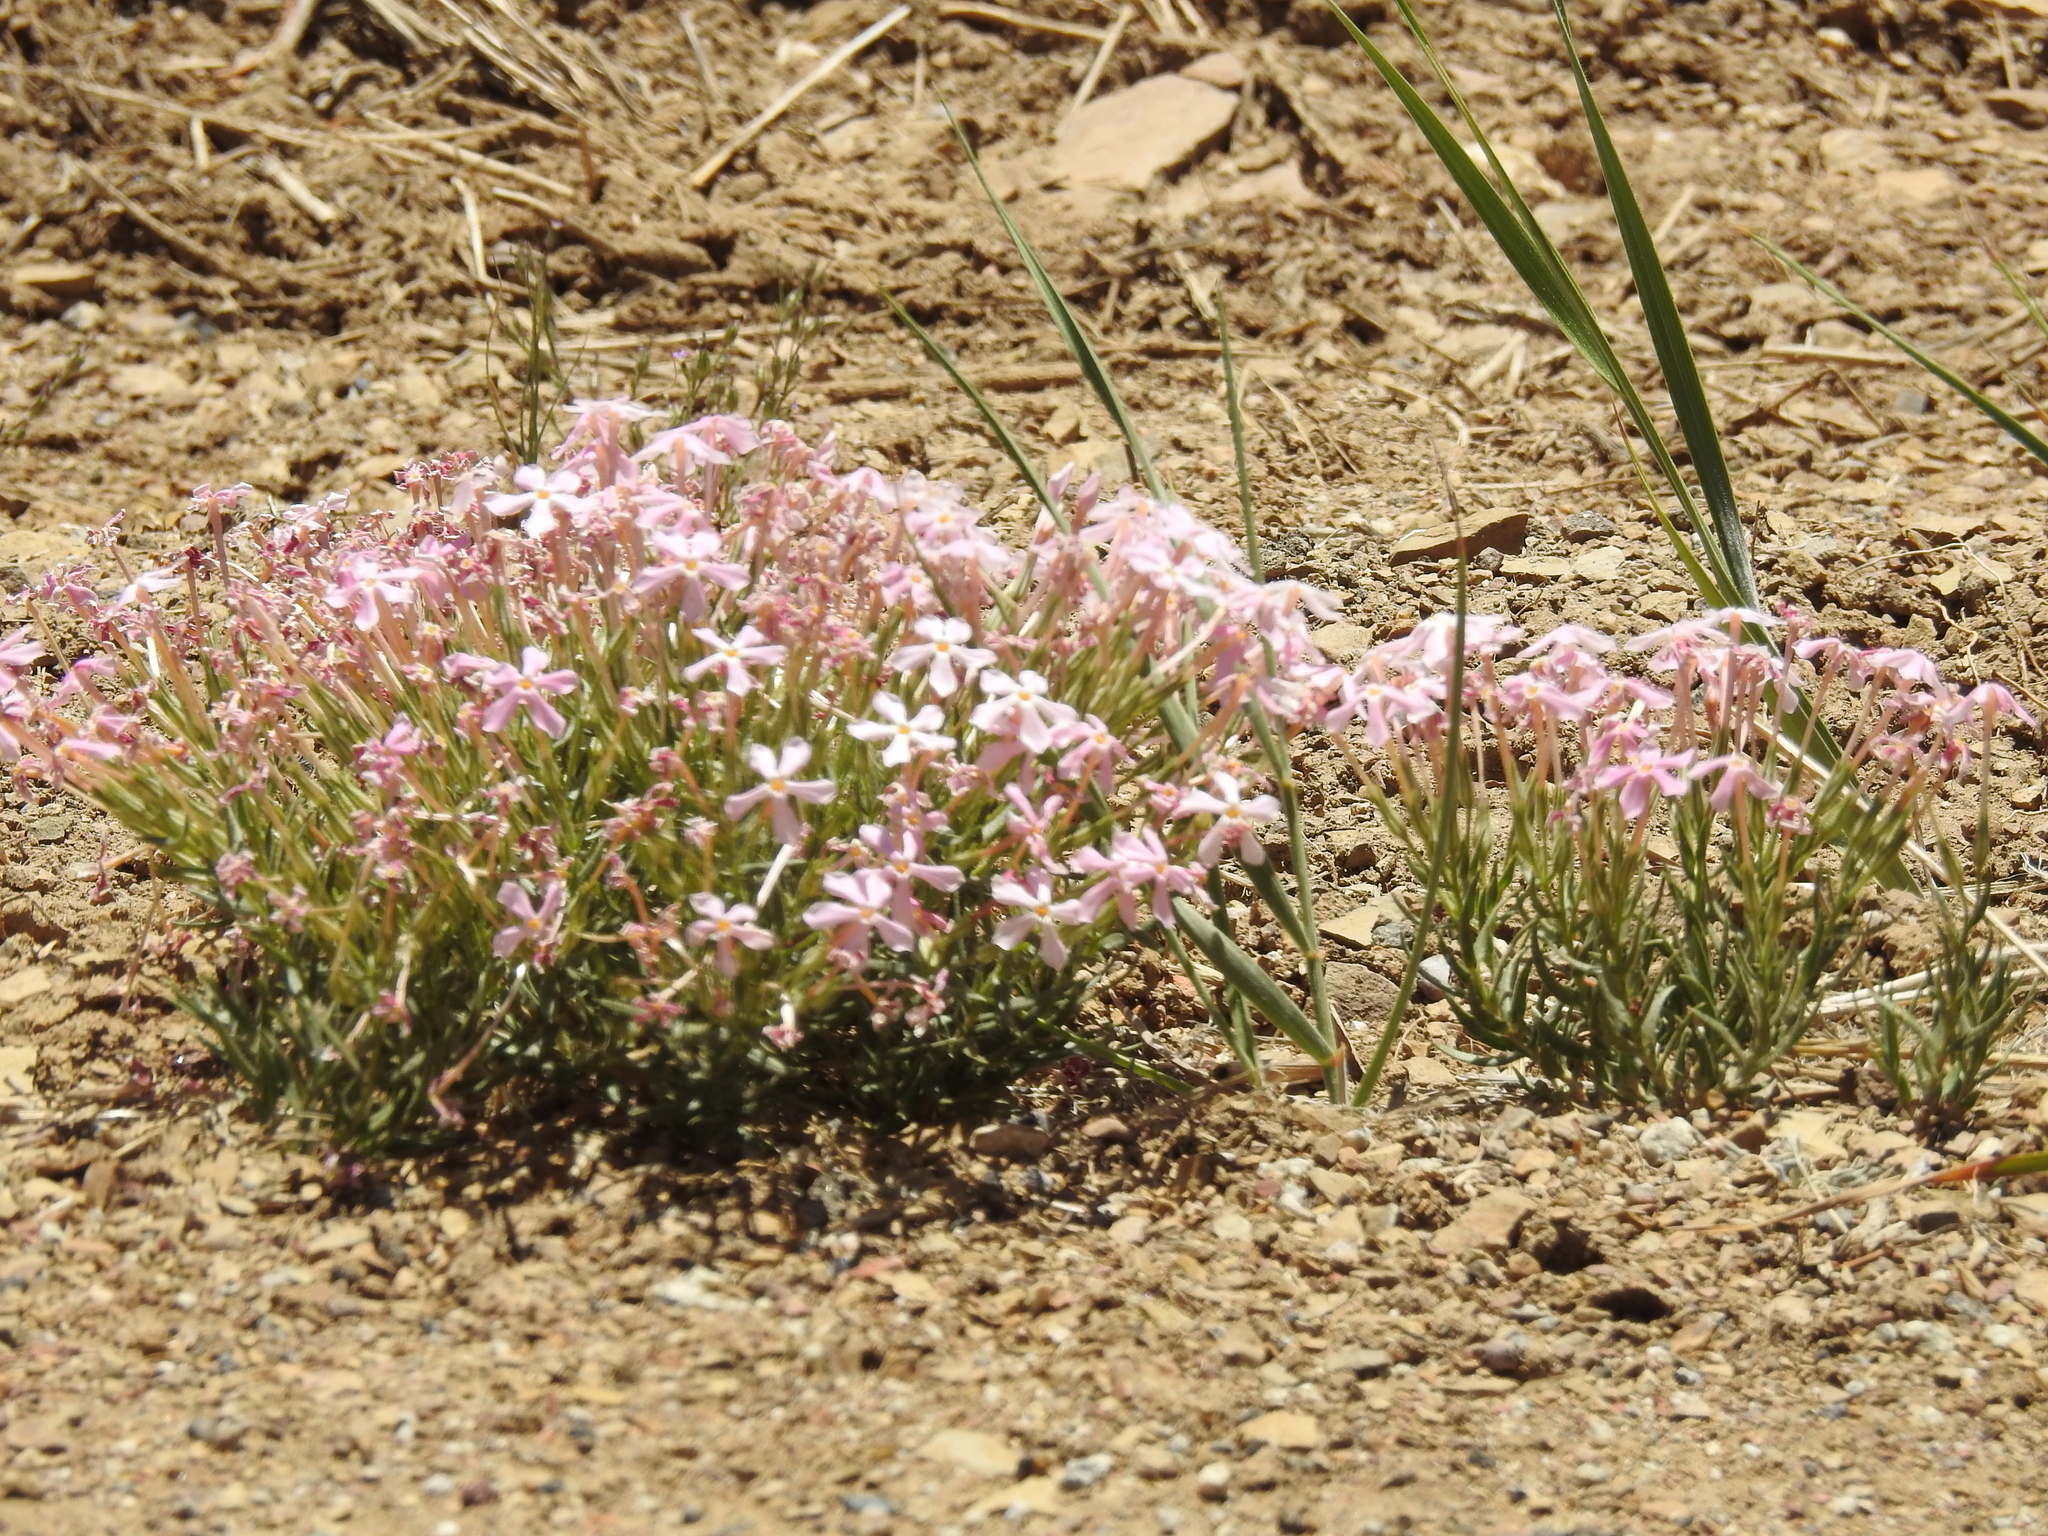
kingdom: Plantae
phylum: Tracheophyta
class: Magnoliopsida
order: Ericales
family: Polemoniaceae
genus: Phlox
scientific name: Phlox longifolia
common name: Longleaf phlox
